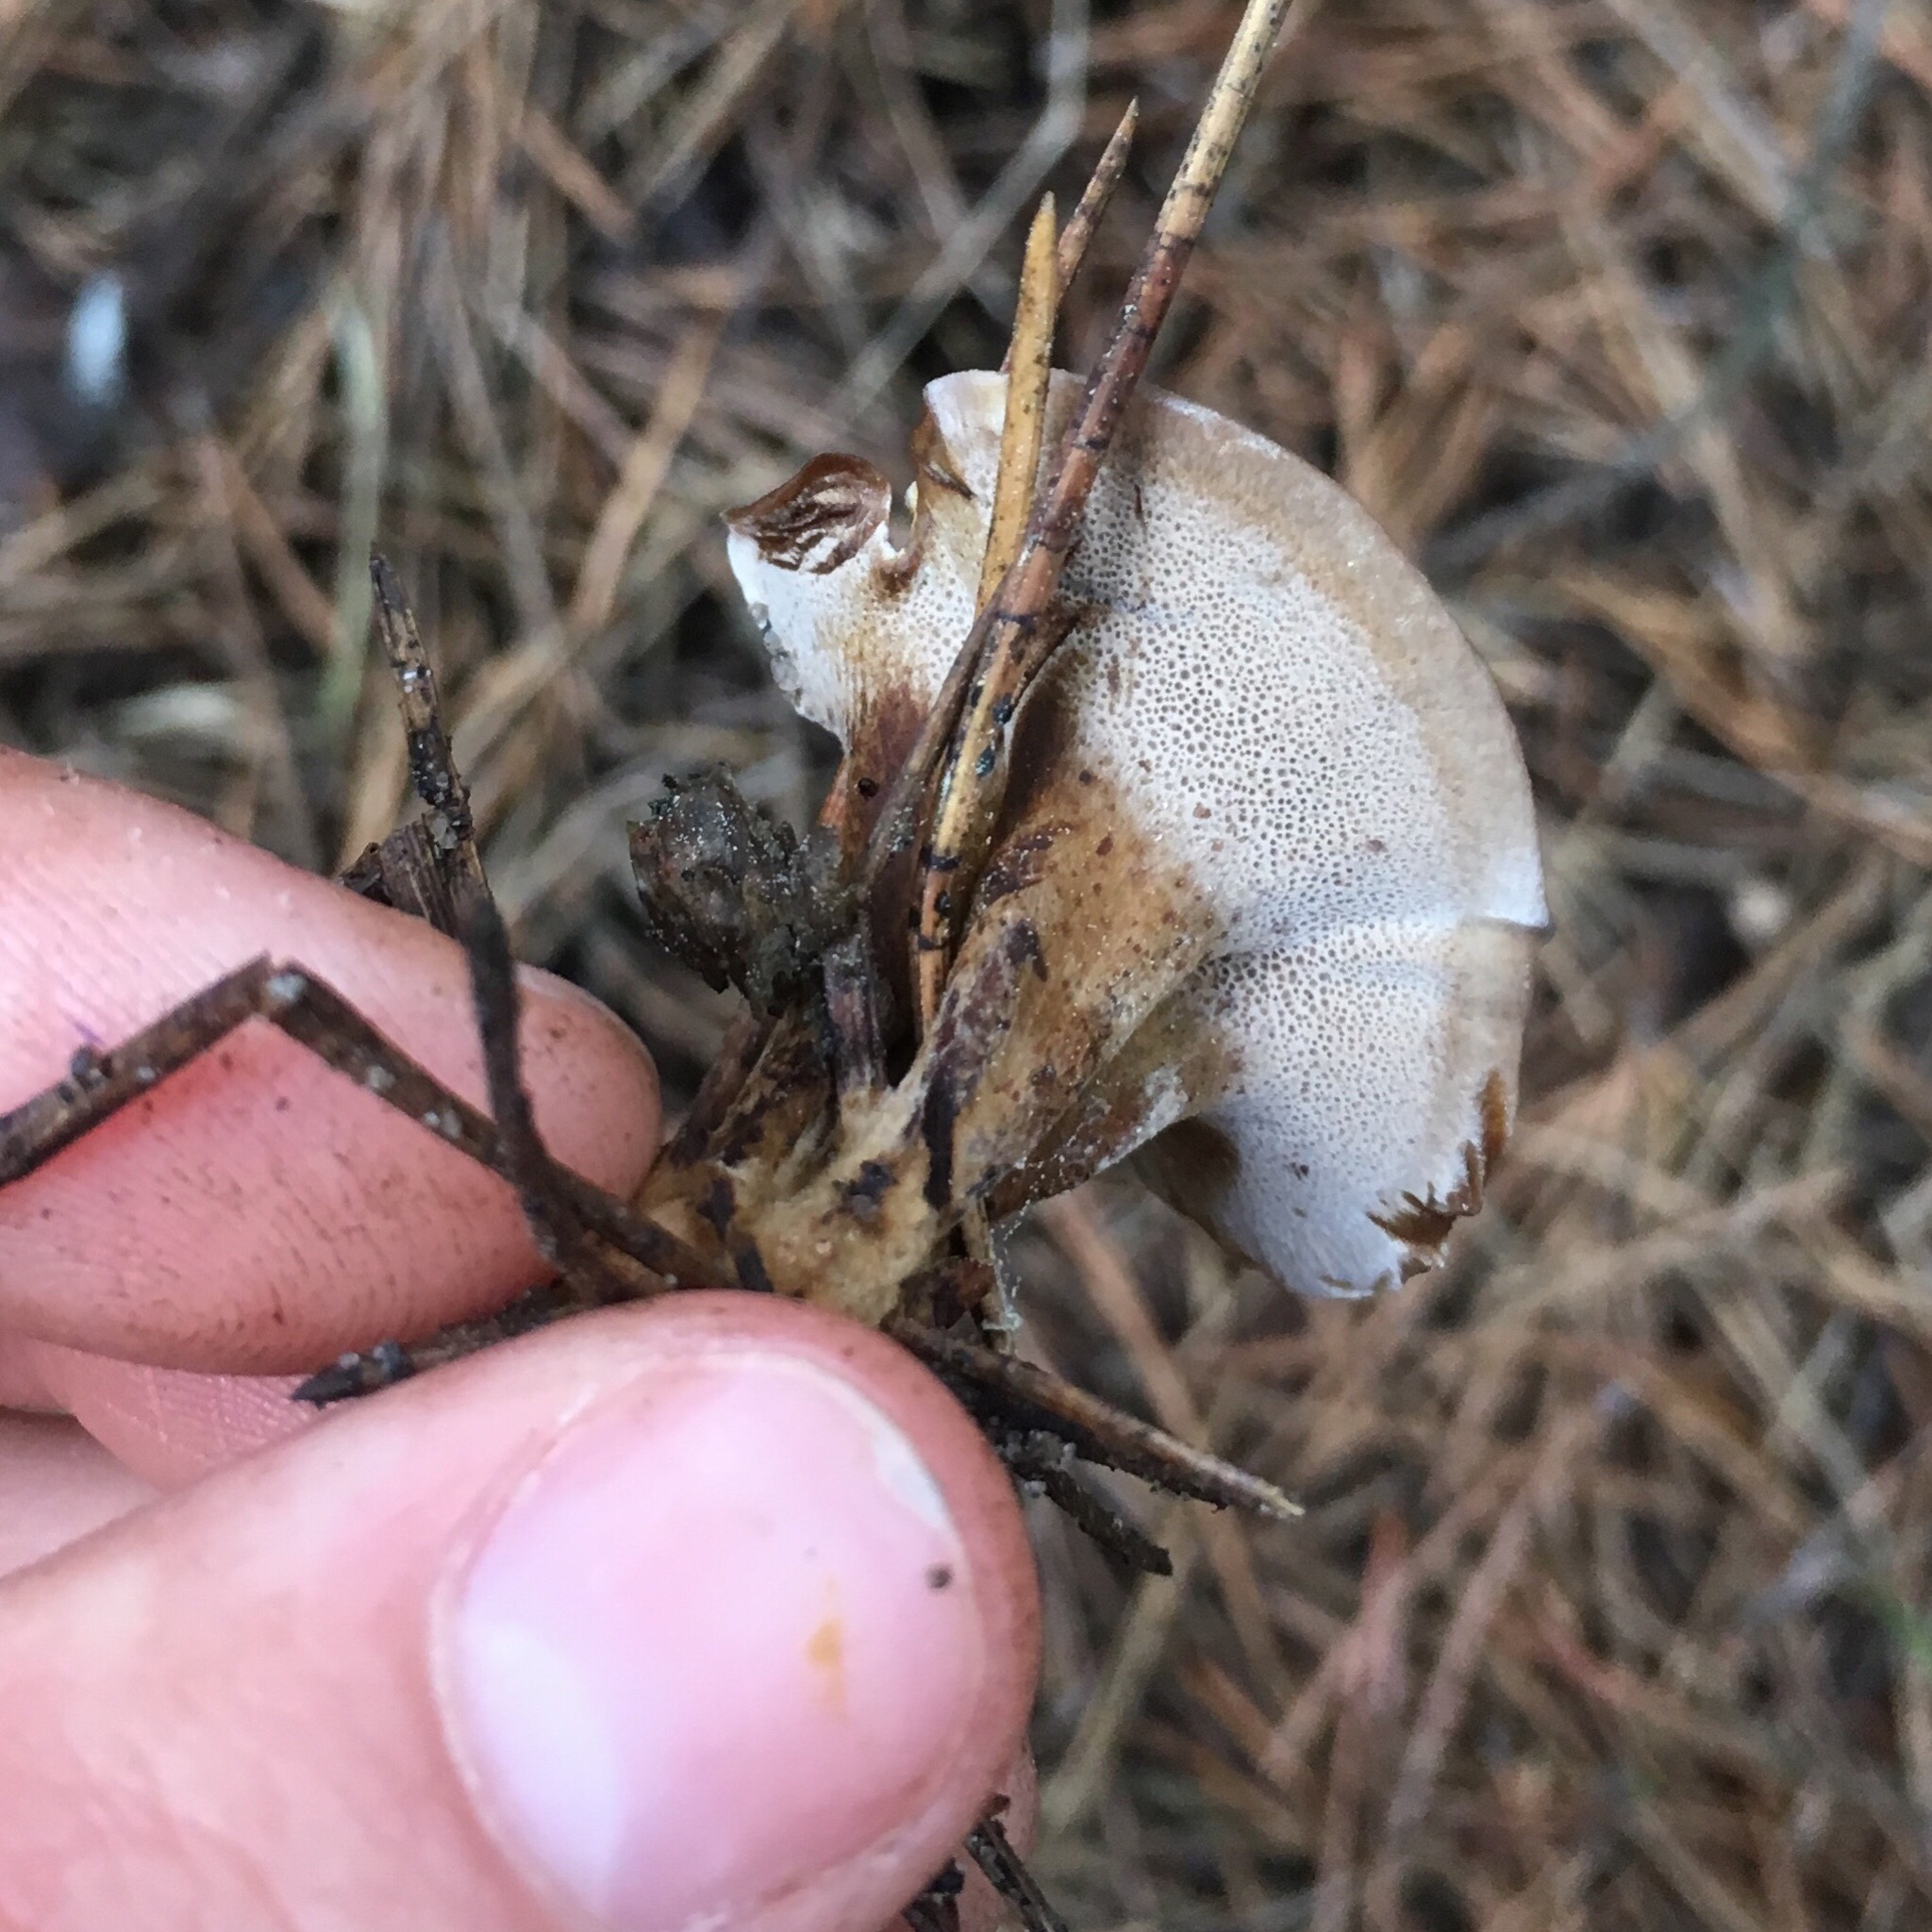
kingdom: Fungi
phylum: Basidiomycota
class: Agaricomycetes
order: Hymenochaetales
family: Hymenochaetaceae
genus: Coltricia
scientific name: Coltricia perennis
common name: Tiger's eye
